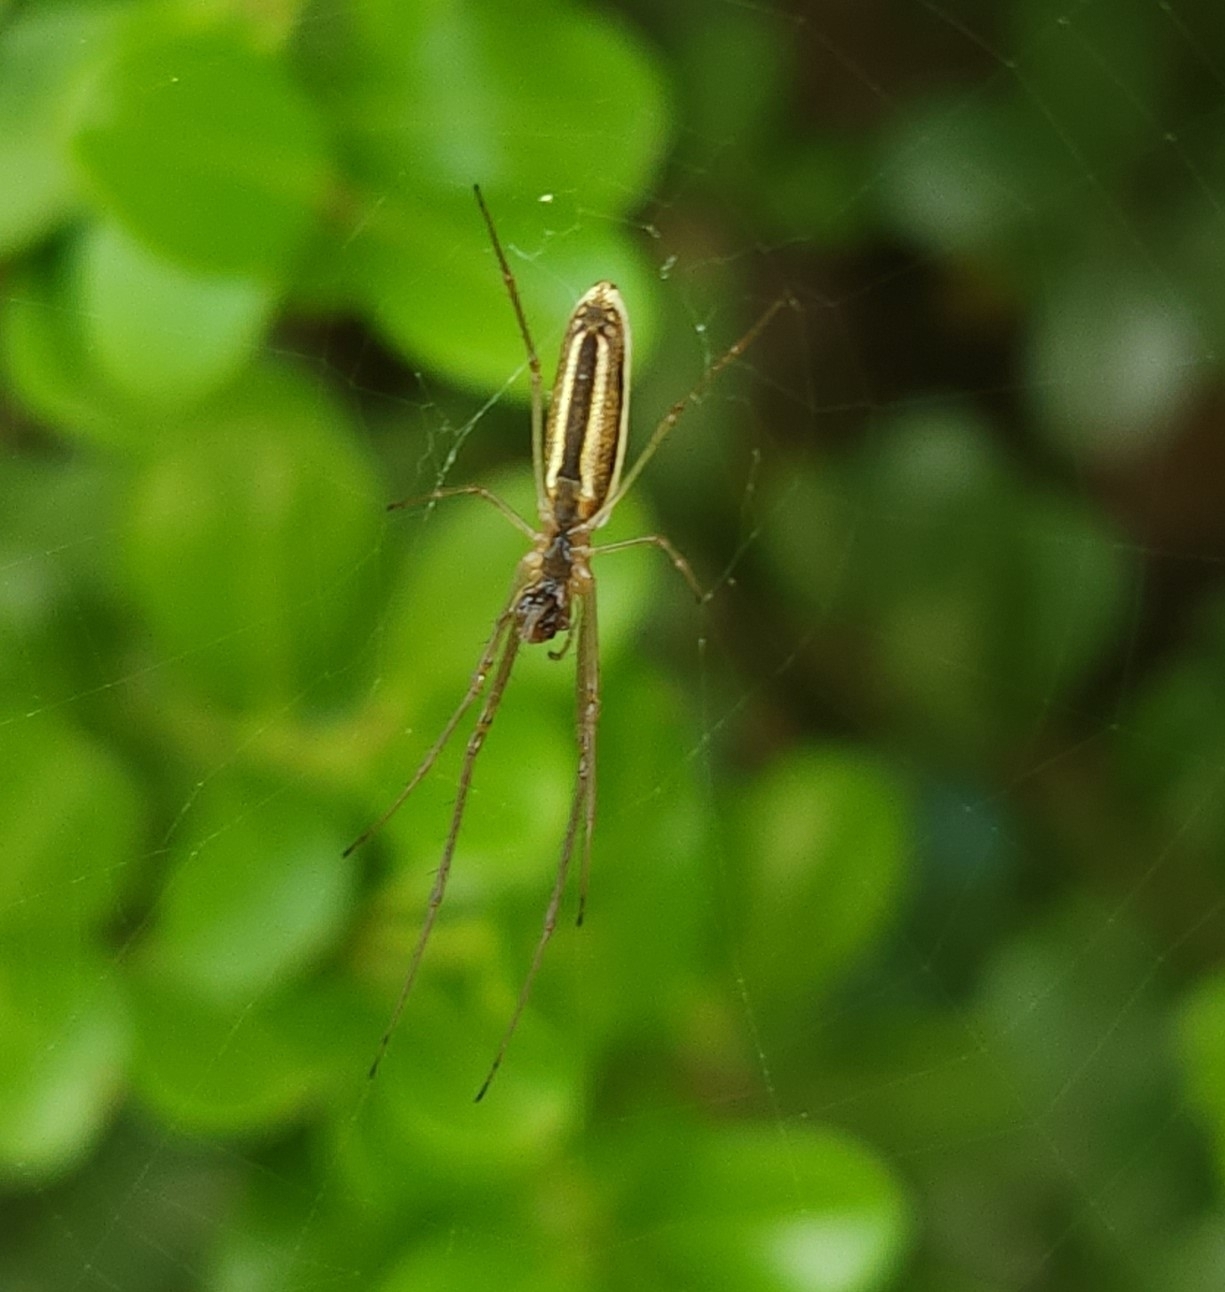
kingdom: Animalia
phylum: Arthropoda
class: Arachnida
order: Araneae
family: Tetragnathidae
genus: Tetragnatha
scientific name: Tetragnatha laboriosa
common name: Longjawed orb weavers
